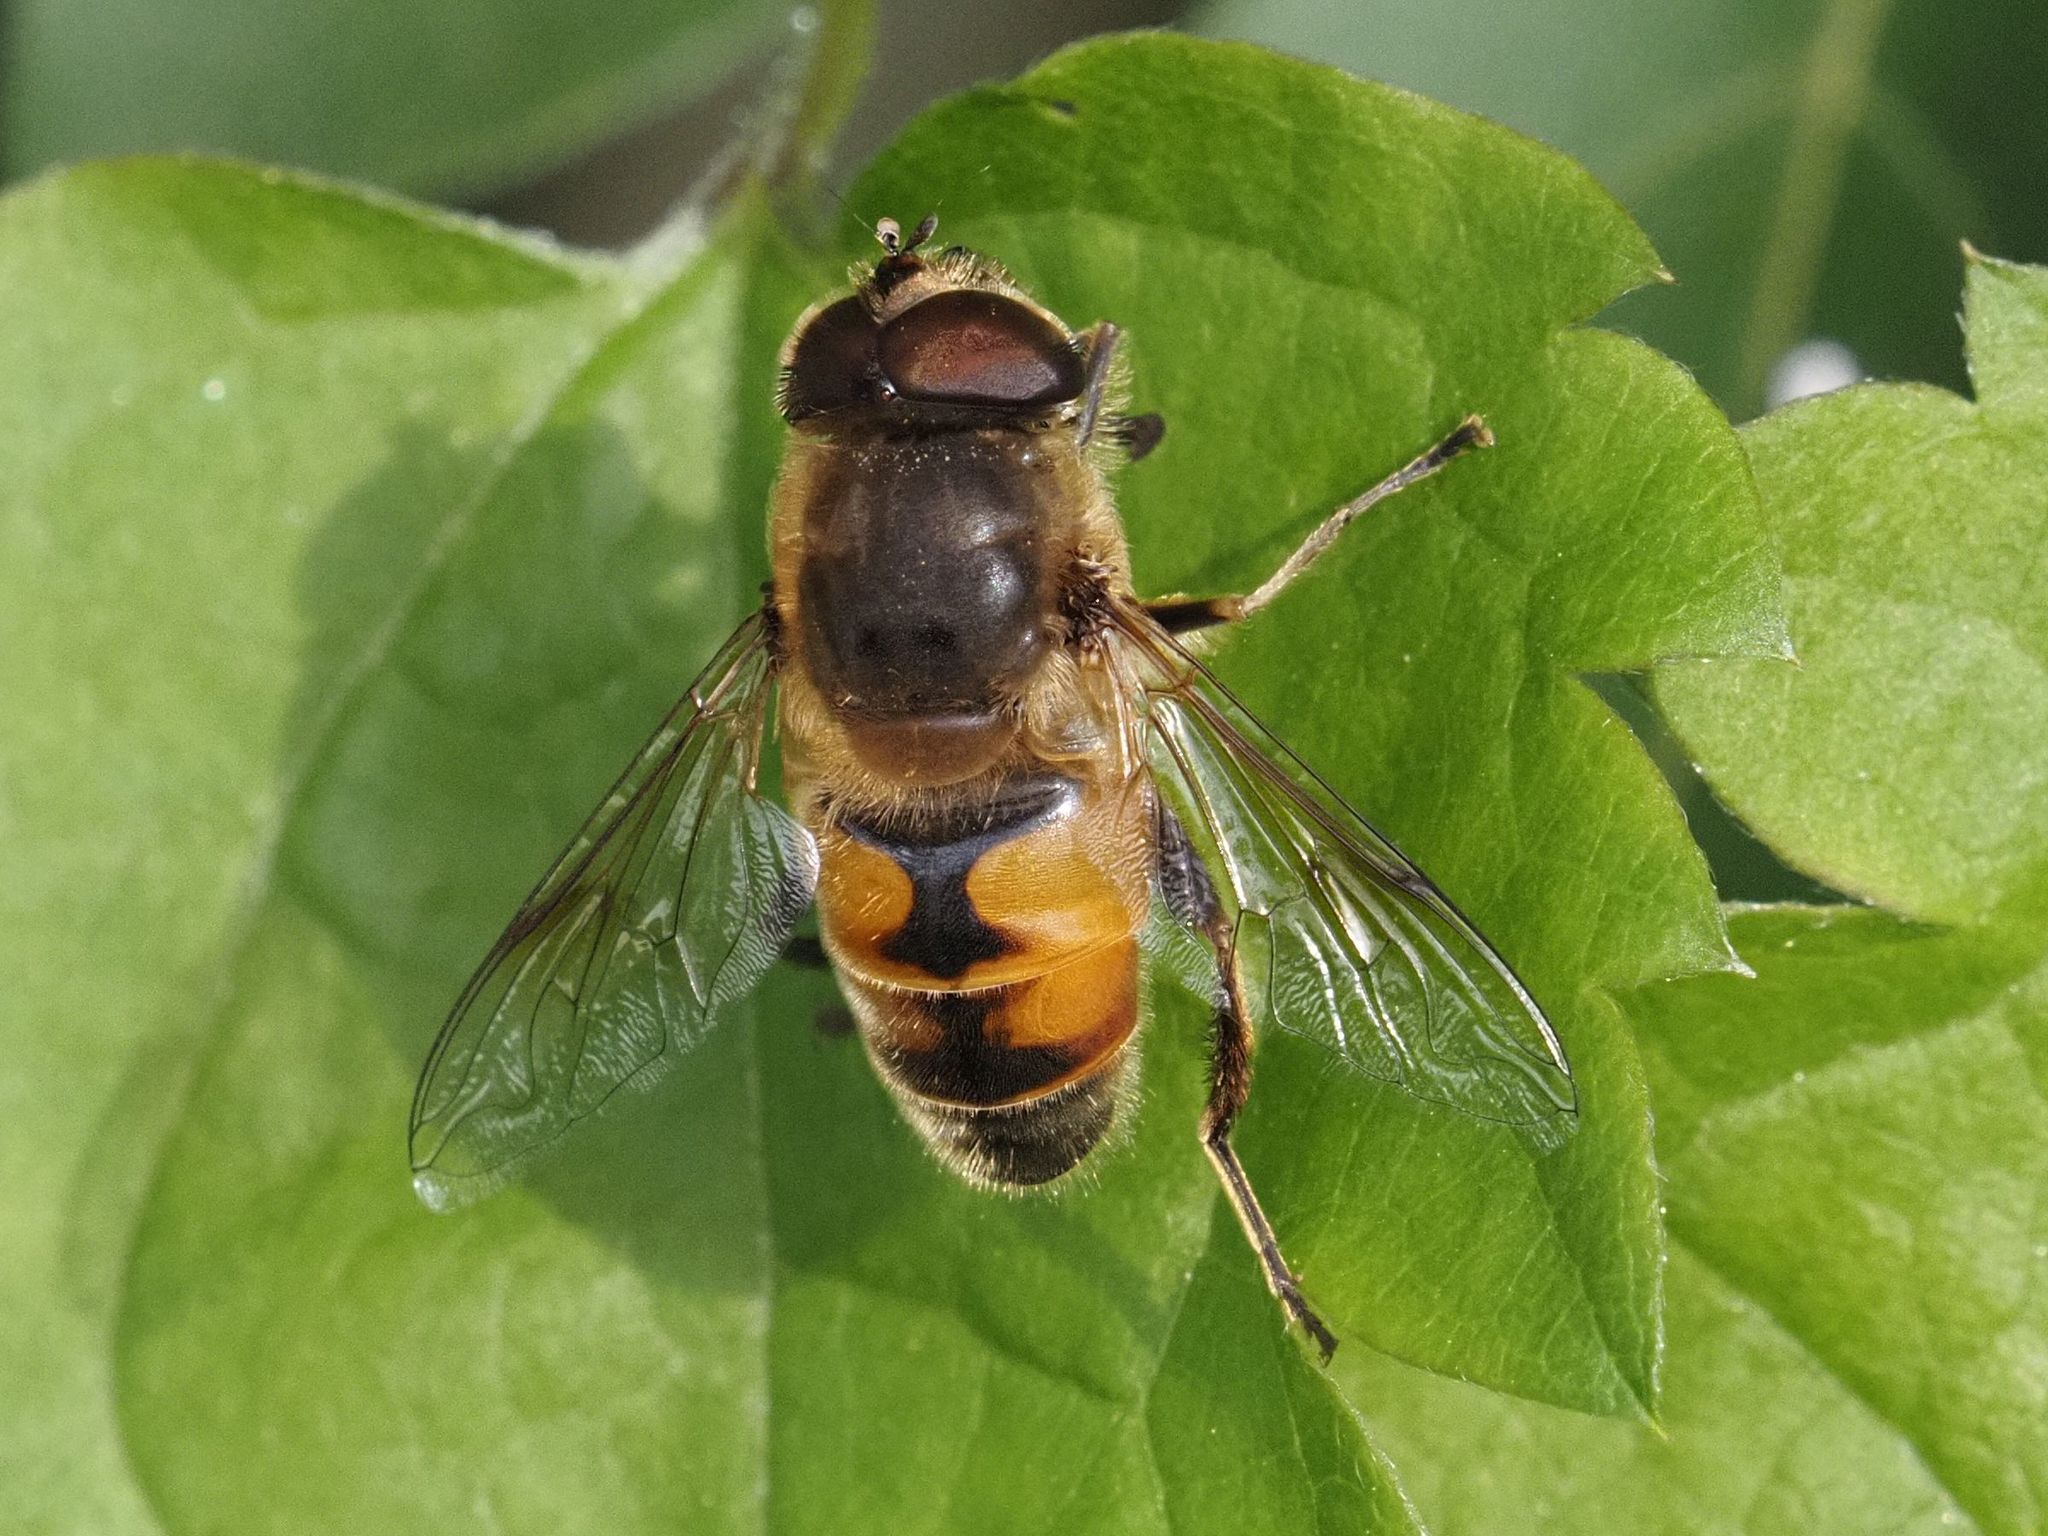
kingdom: Animalia
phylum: Arthropoda
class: Insecta
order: Diptera
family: Syrphidae
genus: Eristalis
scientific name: Eristalis tenax
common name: Drone fly
